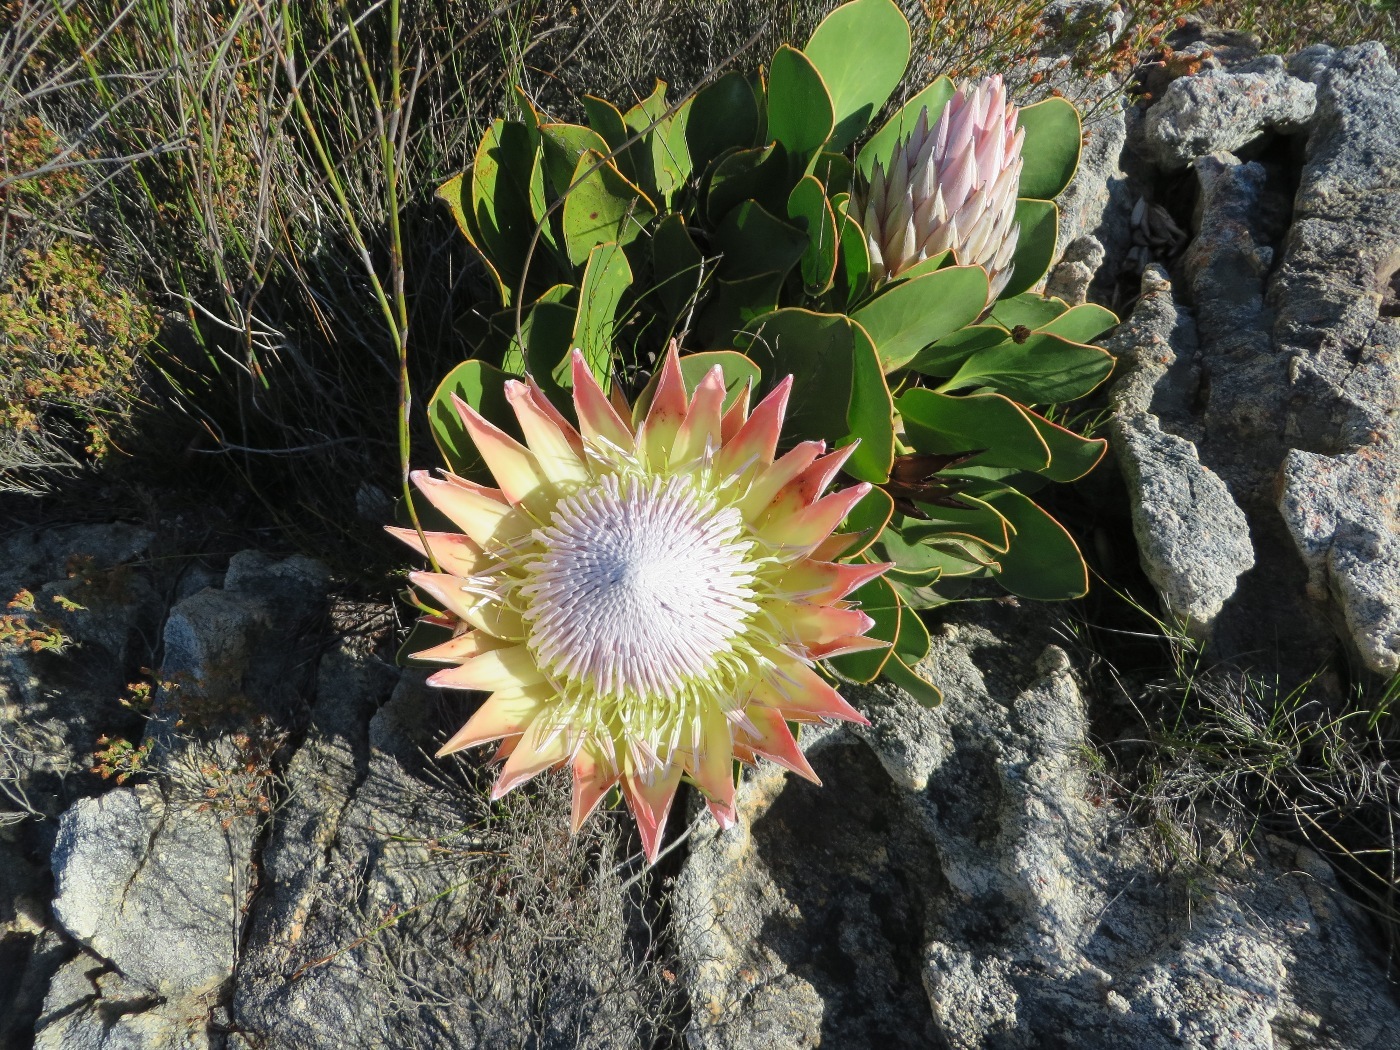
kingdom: Plantae
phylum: Tracheophyta
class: Magnoliopsida
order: Proteales
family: Proteaceae
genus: Protea
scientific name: Protea cynaroides
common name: King protea
